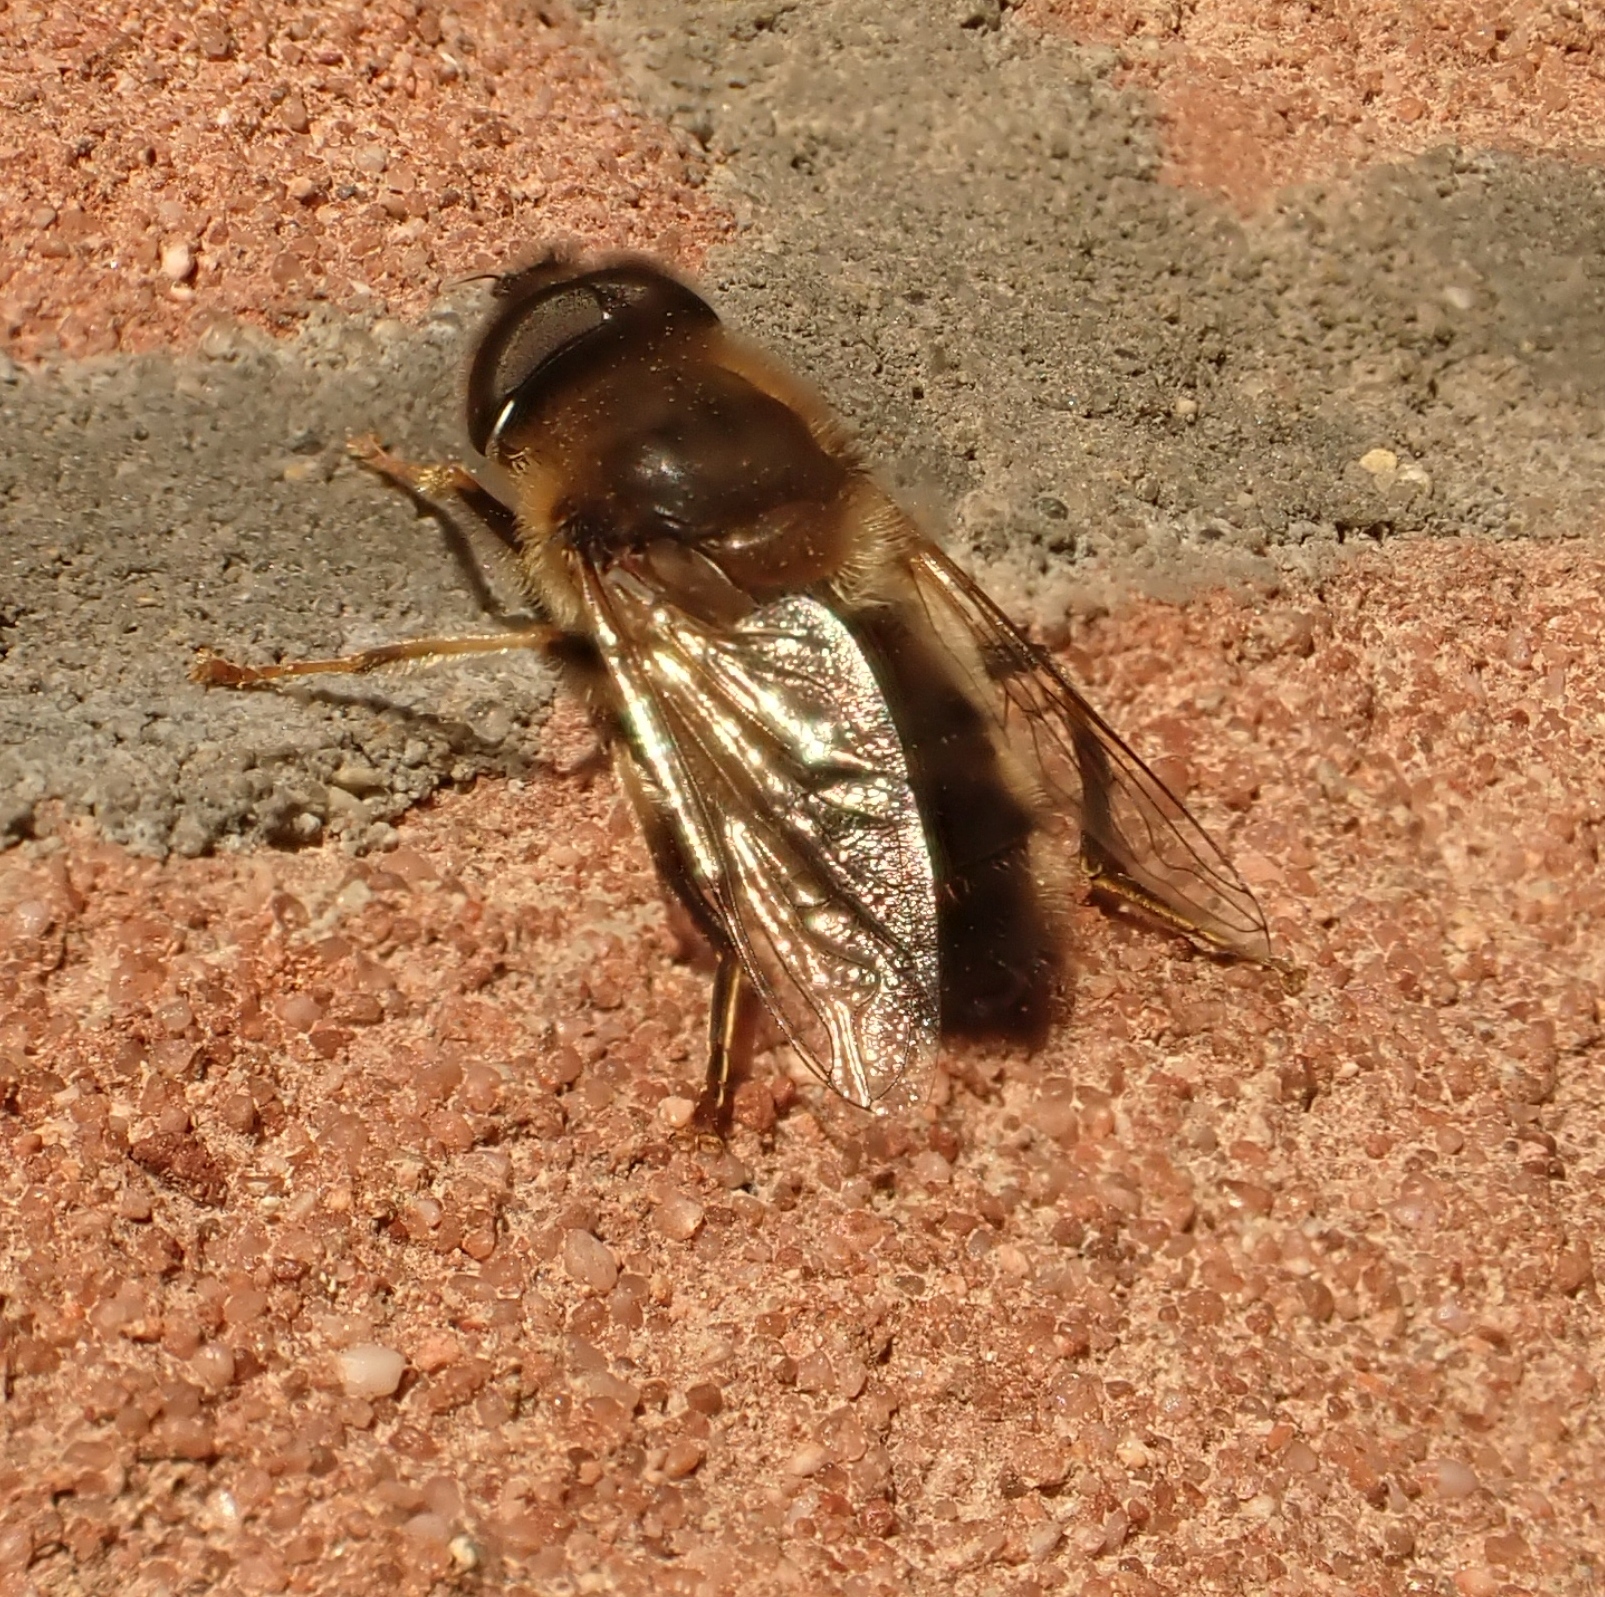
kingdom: Animalia
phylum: Arthropoda
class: Insecta
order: Diptera
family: Syrphidae
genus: Eristalis
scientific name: Eristalis pertinax
